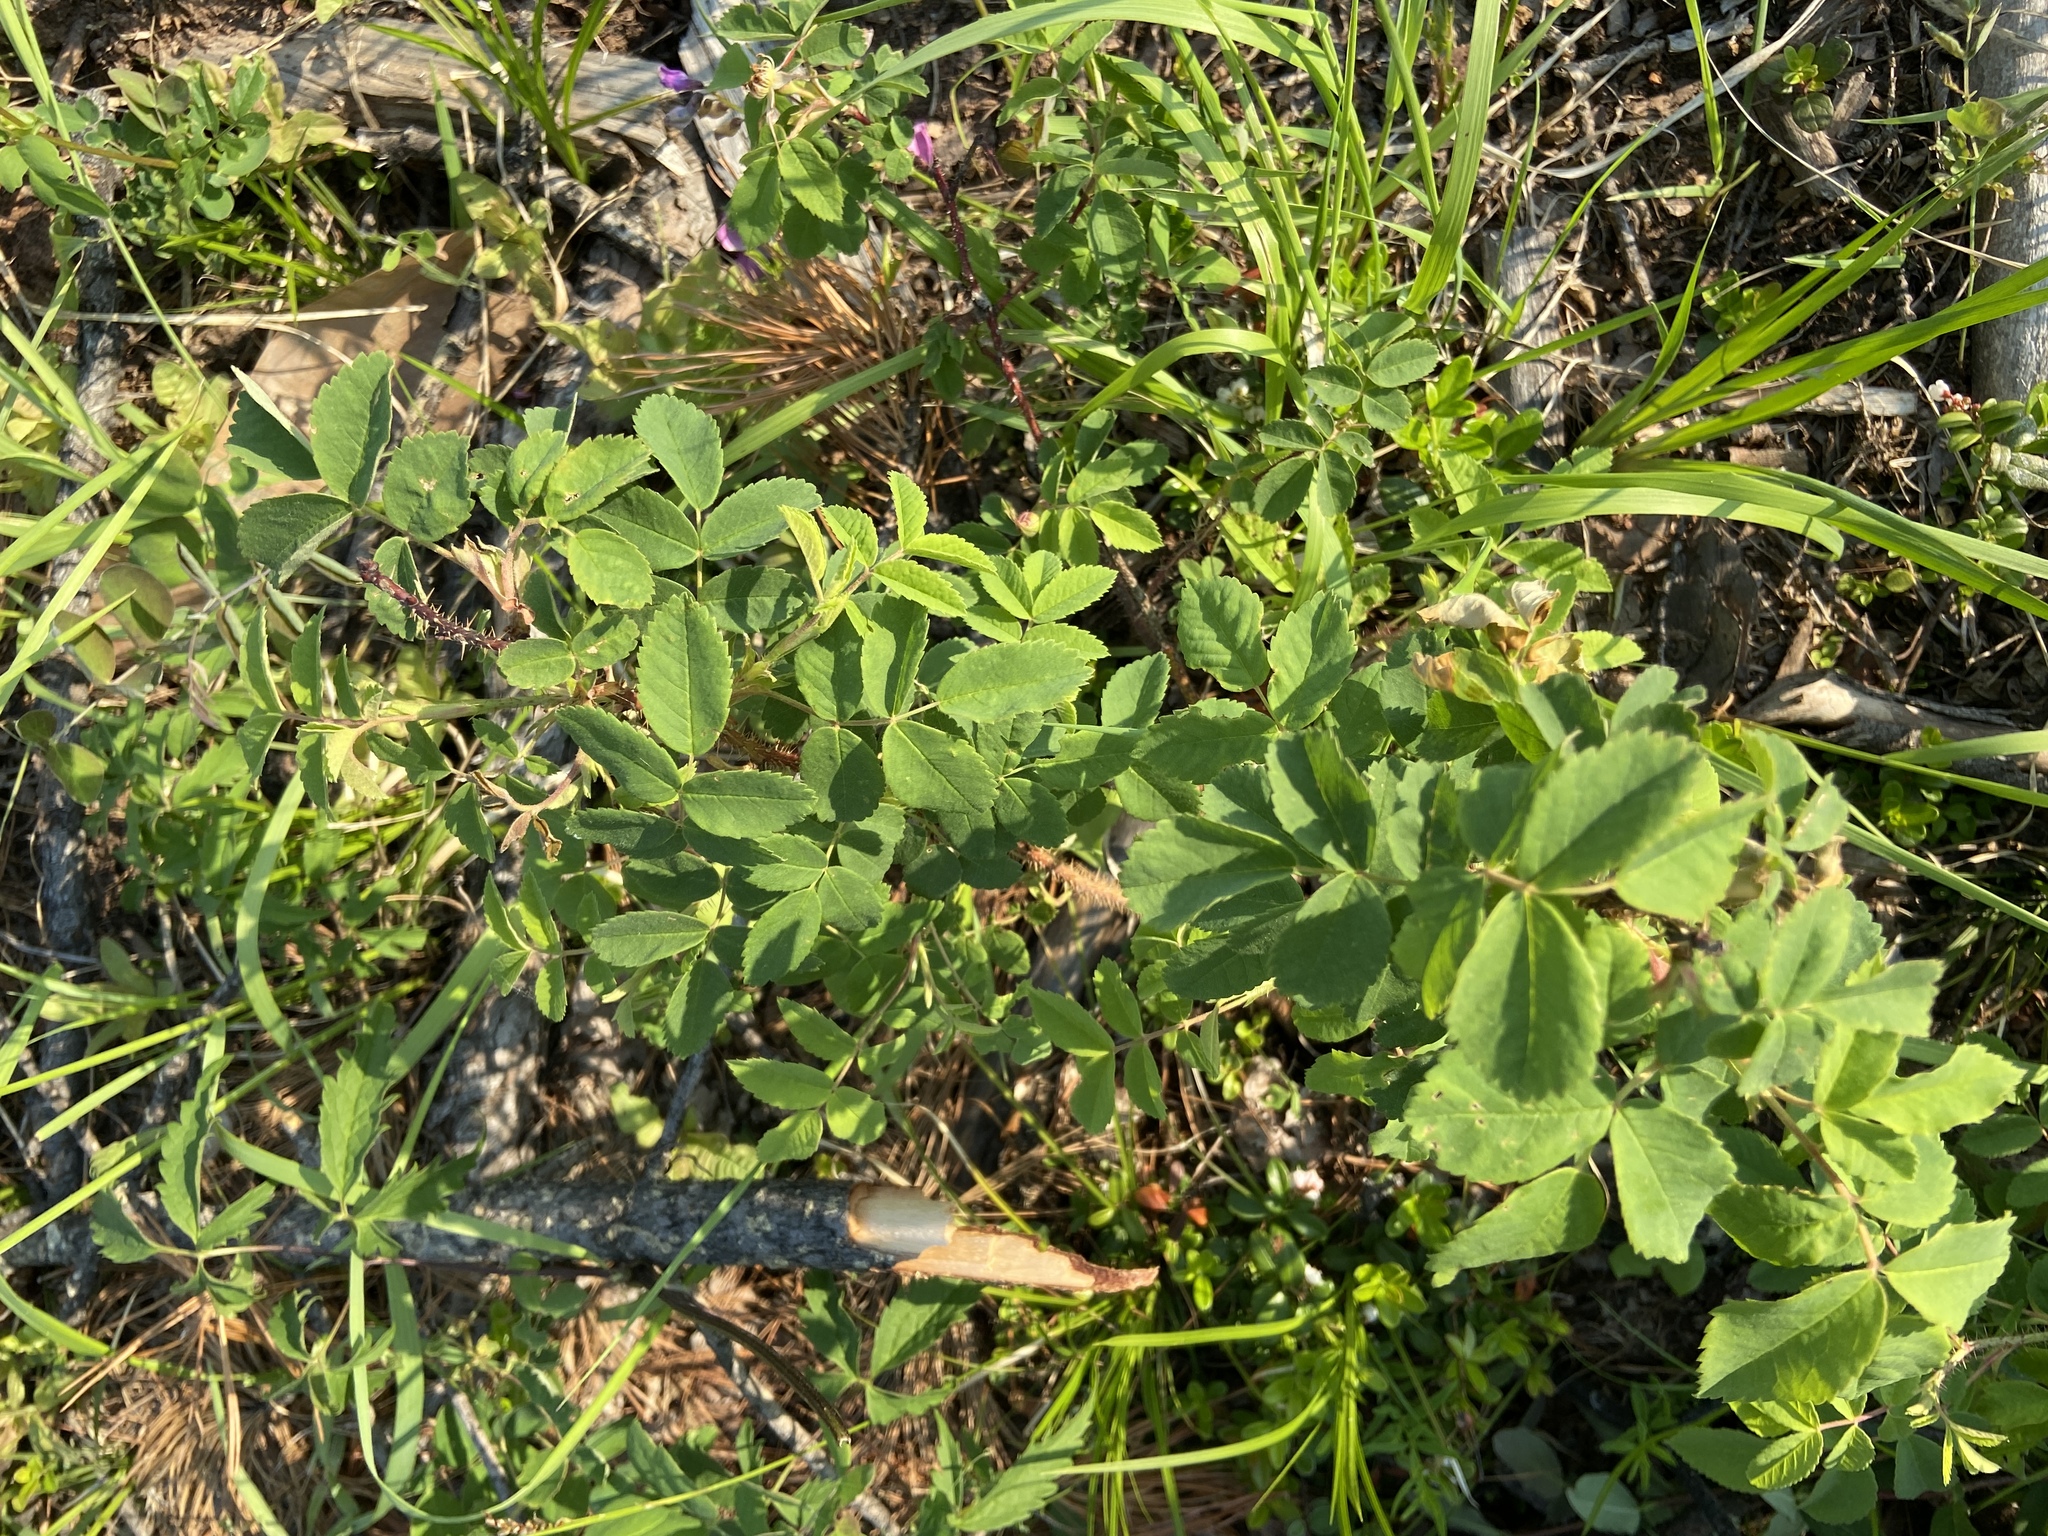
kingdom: Plantae
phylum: Tracheophyta
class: Magnoliopsida
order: Rosales
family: Rosaceae
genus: Rosa
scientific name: Rosa acicularis
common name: Prickly rose
